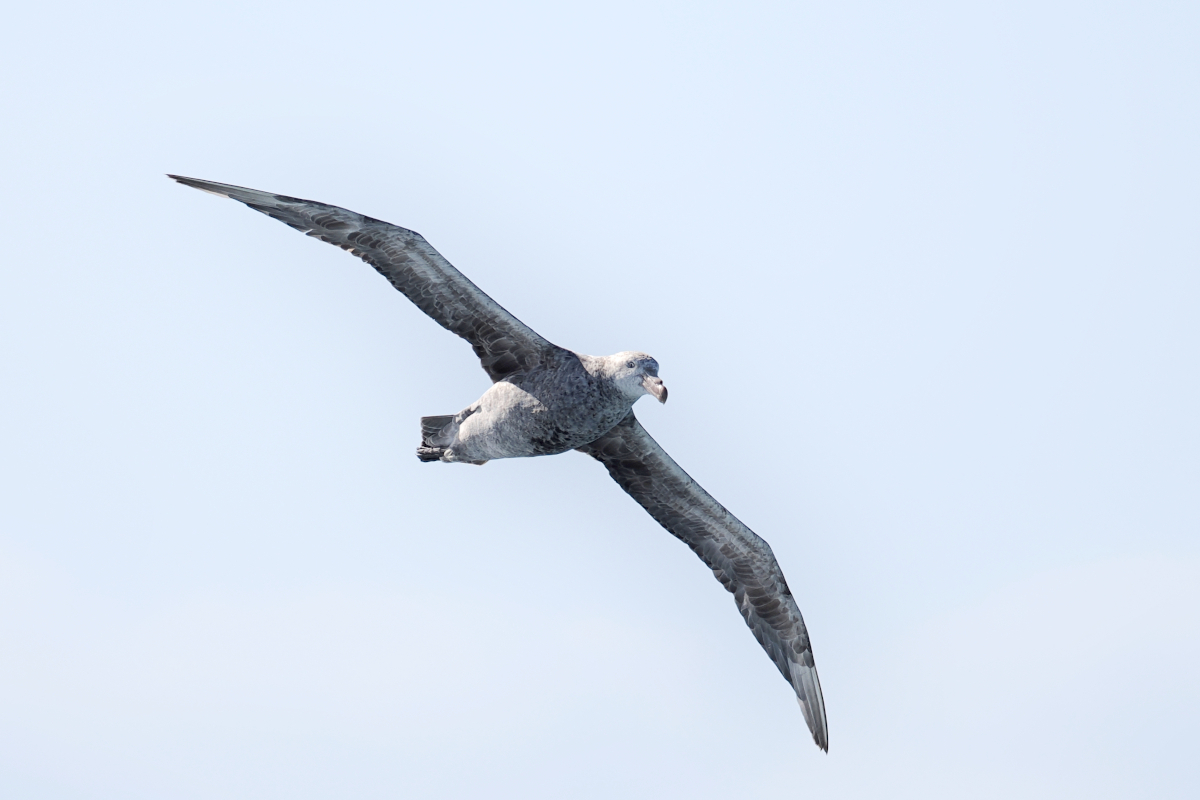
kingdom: Animalia
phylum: Chordata
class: Aves
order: Procellariiformes
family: Procellariidae
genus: Macronectes
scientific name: Macronectes halli
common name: Northern giant petrel
